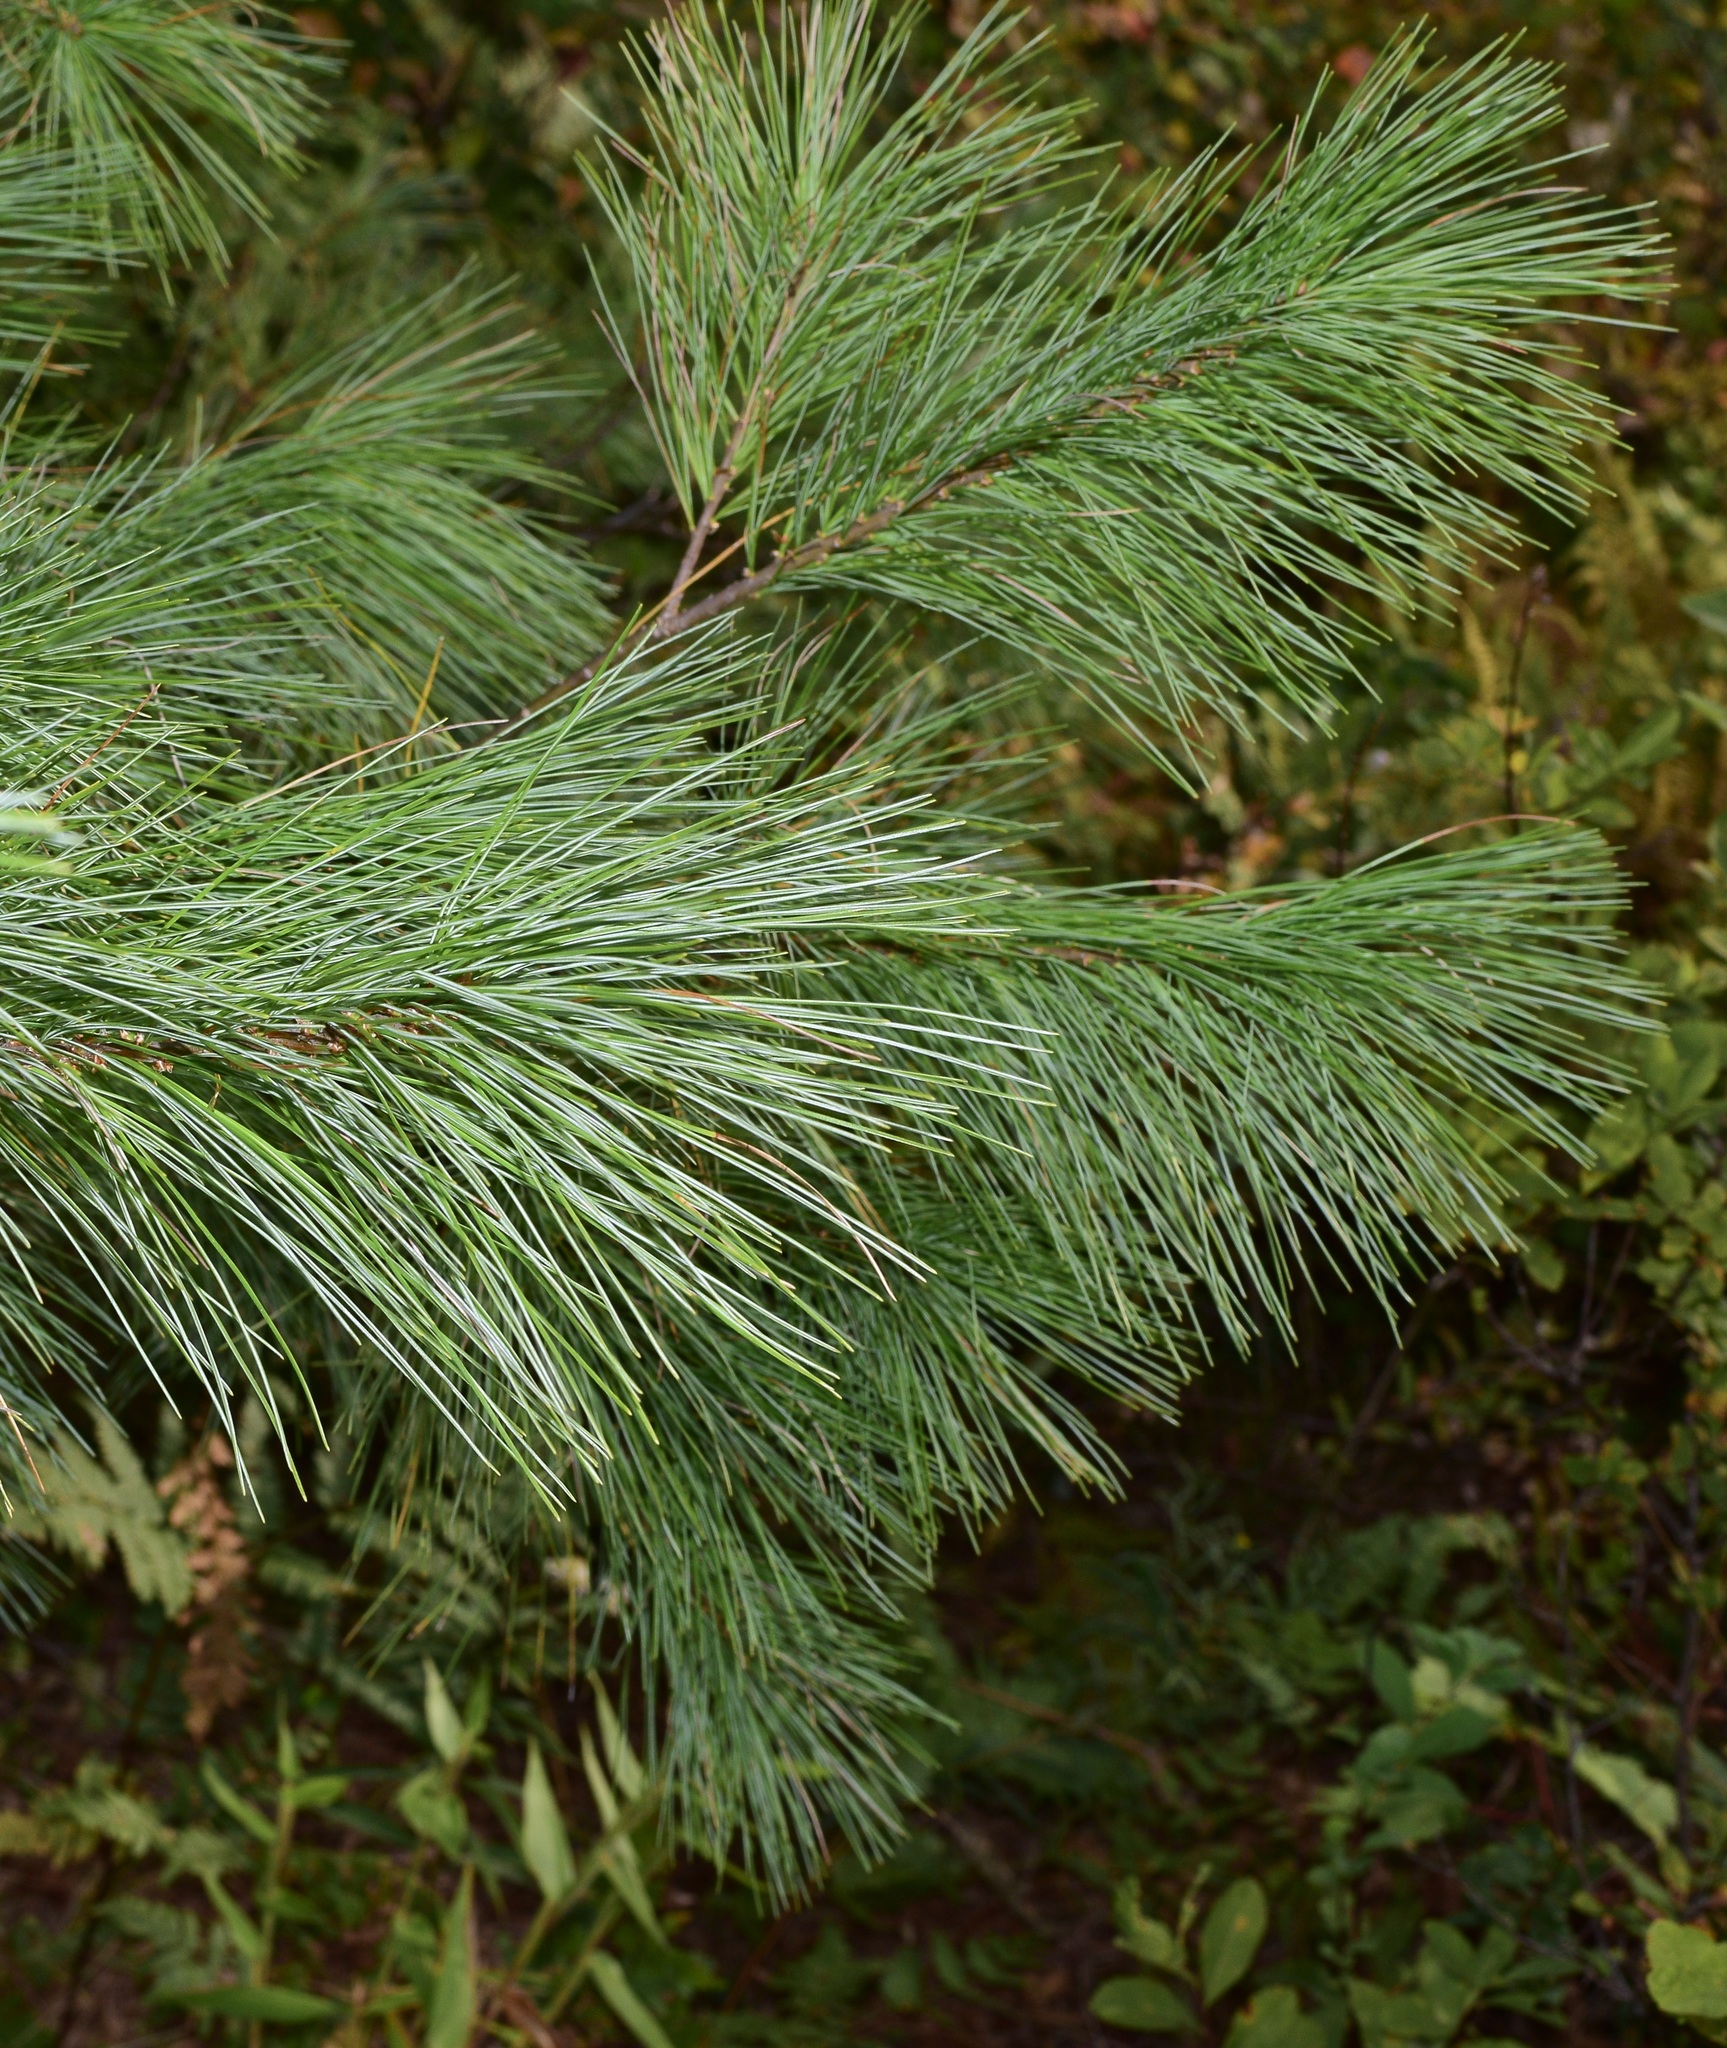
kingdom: Plantae
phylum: Tracheophyta
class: Pinopsida
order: Pinales
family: Pinaceae
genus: Pinus
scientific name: Pinus strobus
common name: Weymouth pine
